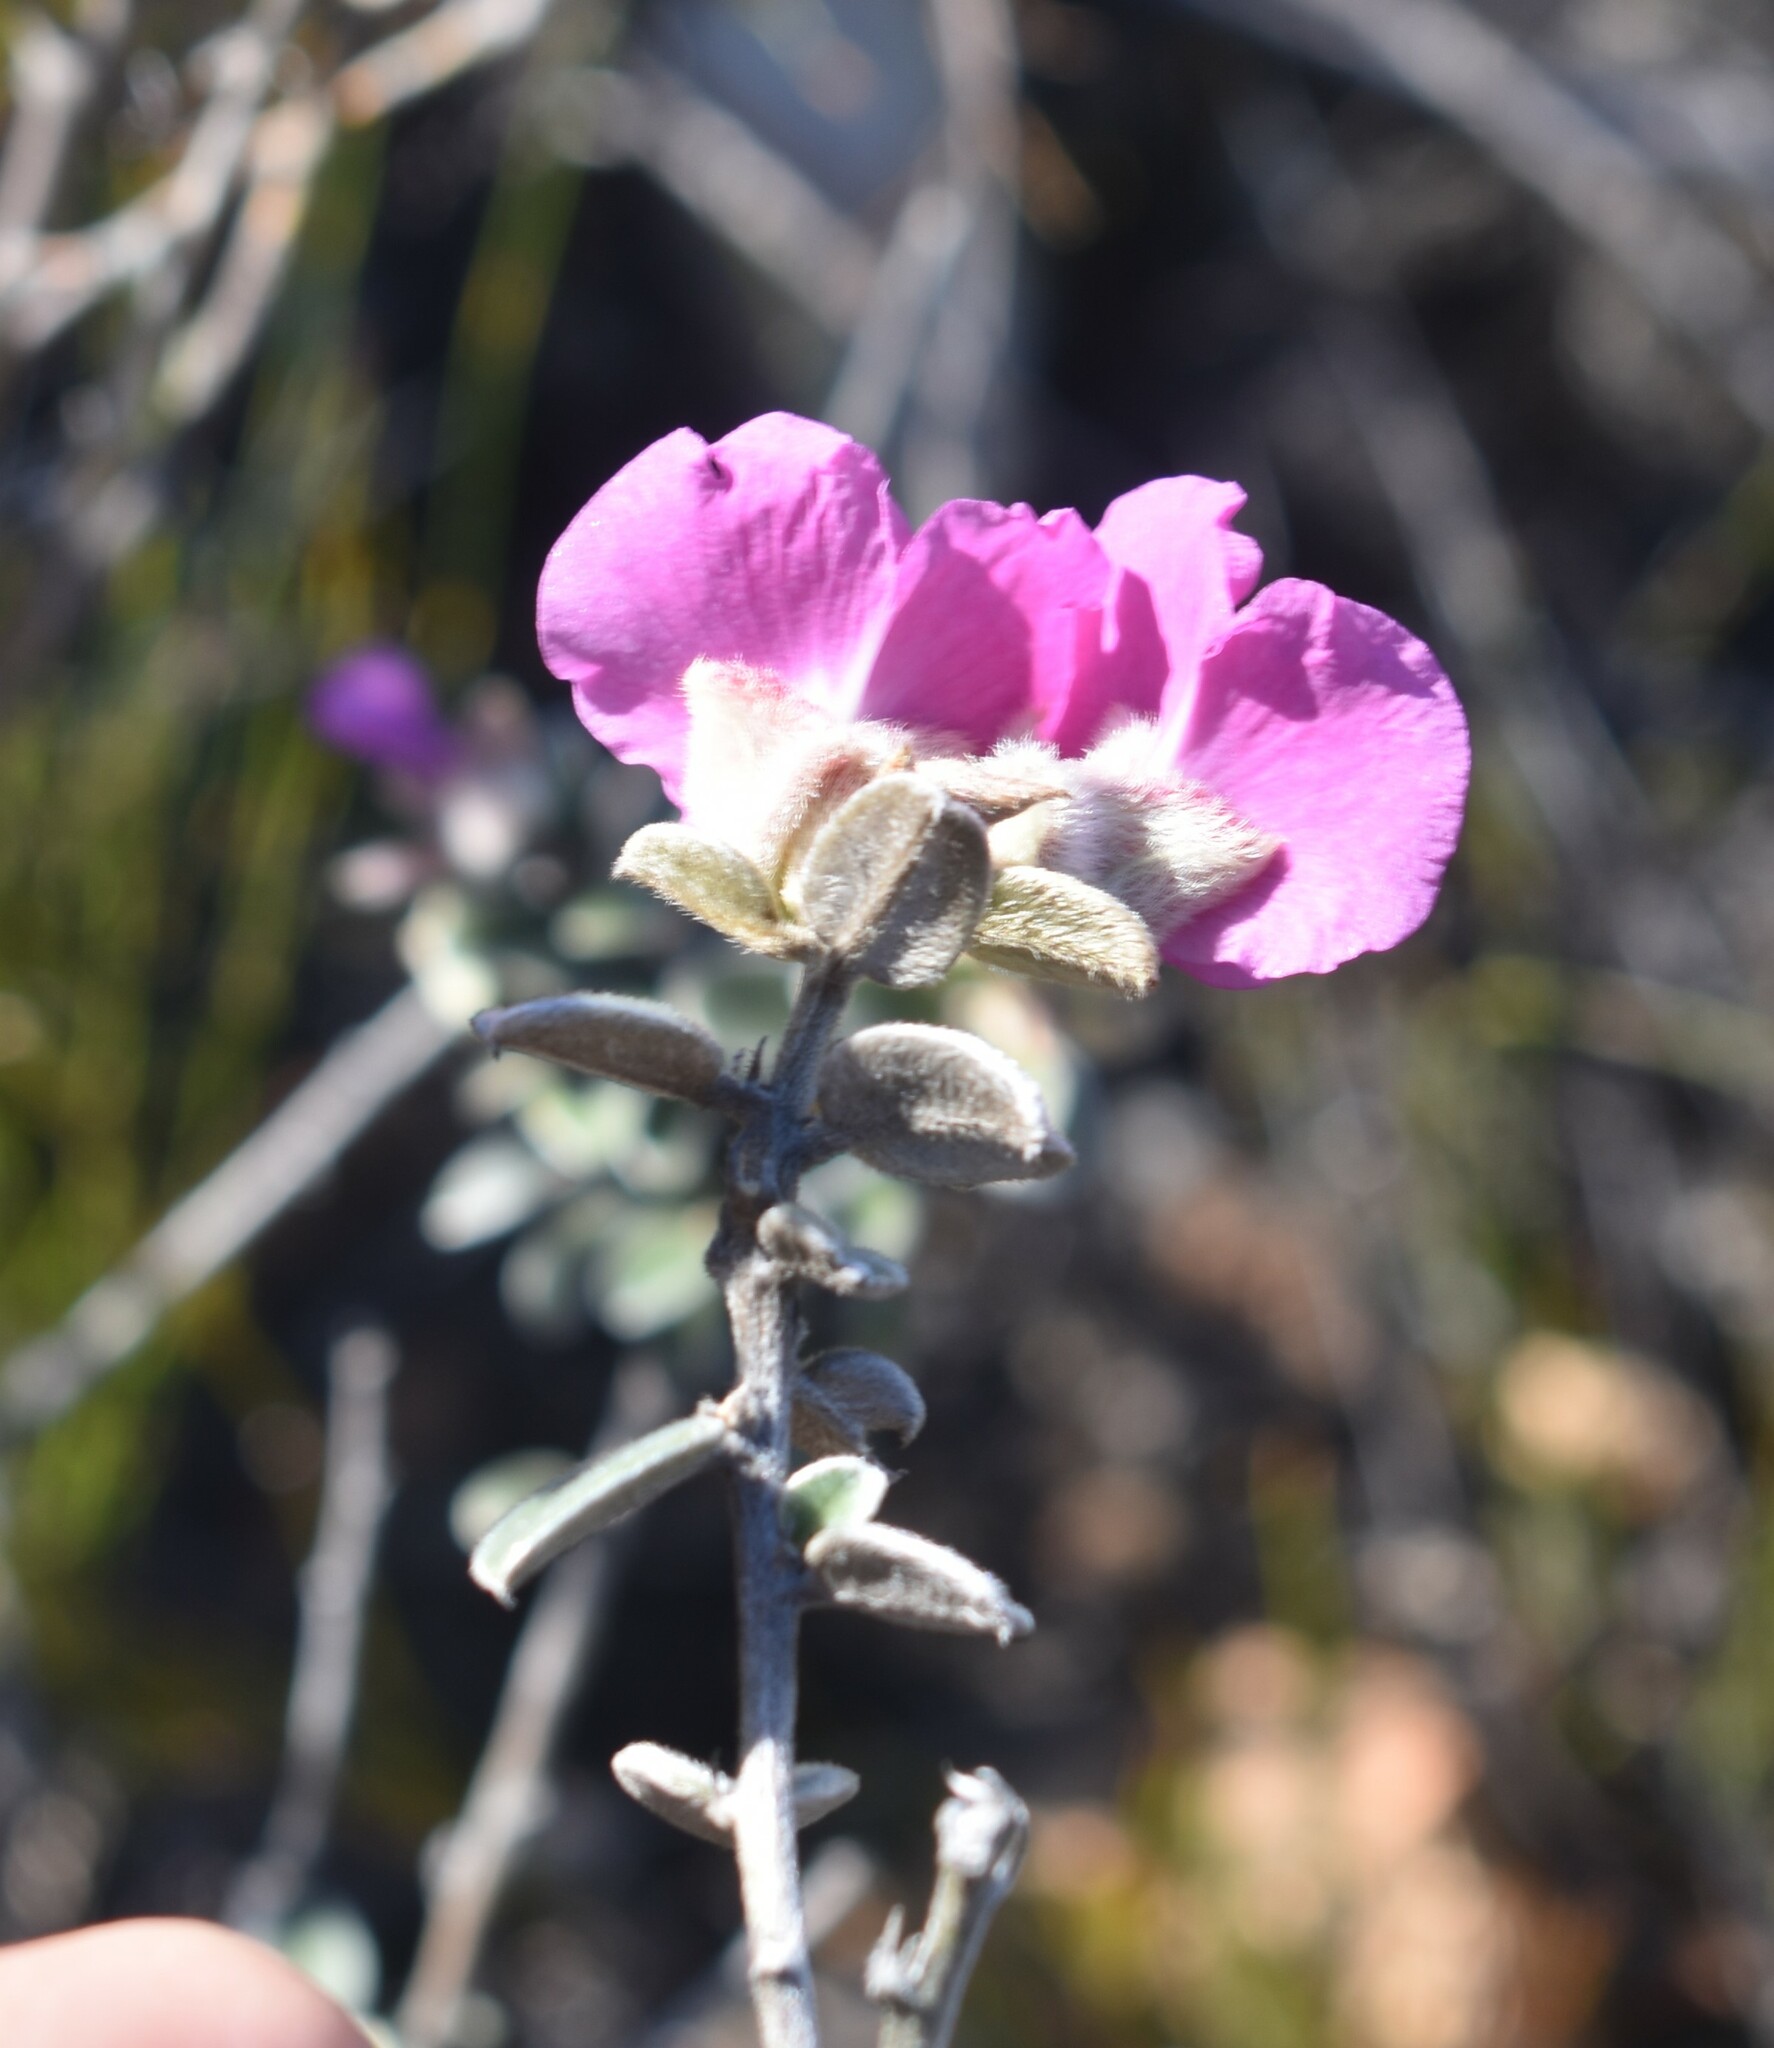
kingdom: Plantae
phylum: Tracheophyta
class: Magnoliopsida
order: Fabales
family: Fabaceae
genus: Podalyria
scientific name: Podalyria burchellii
